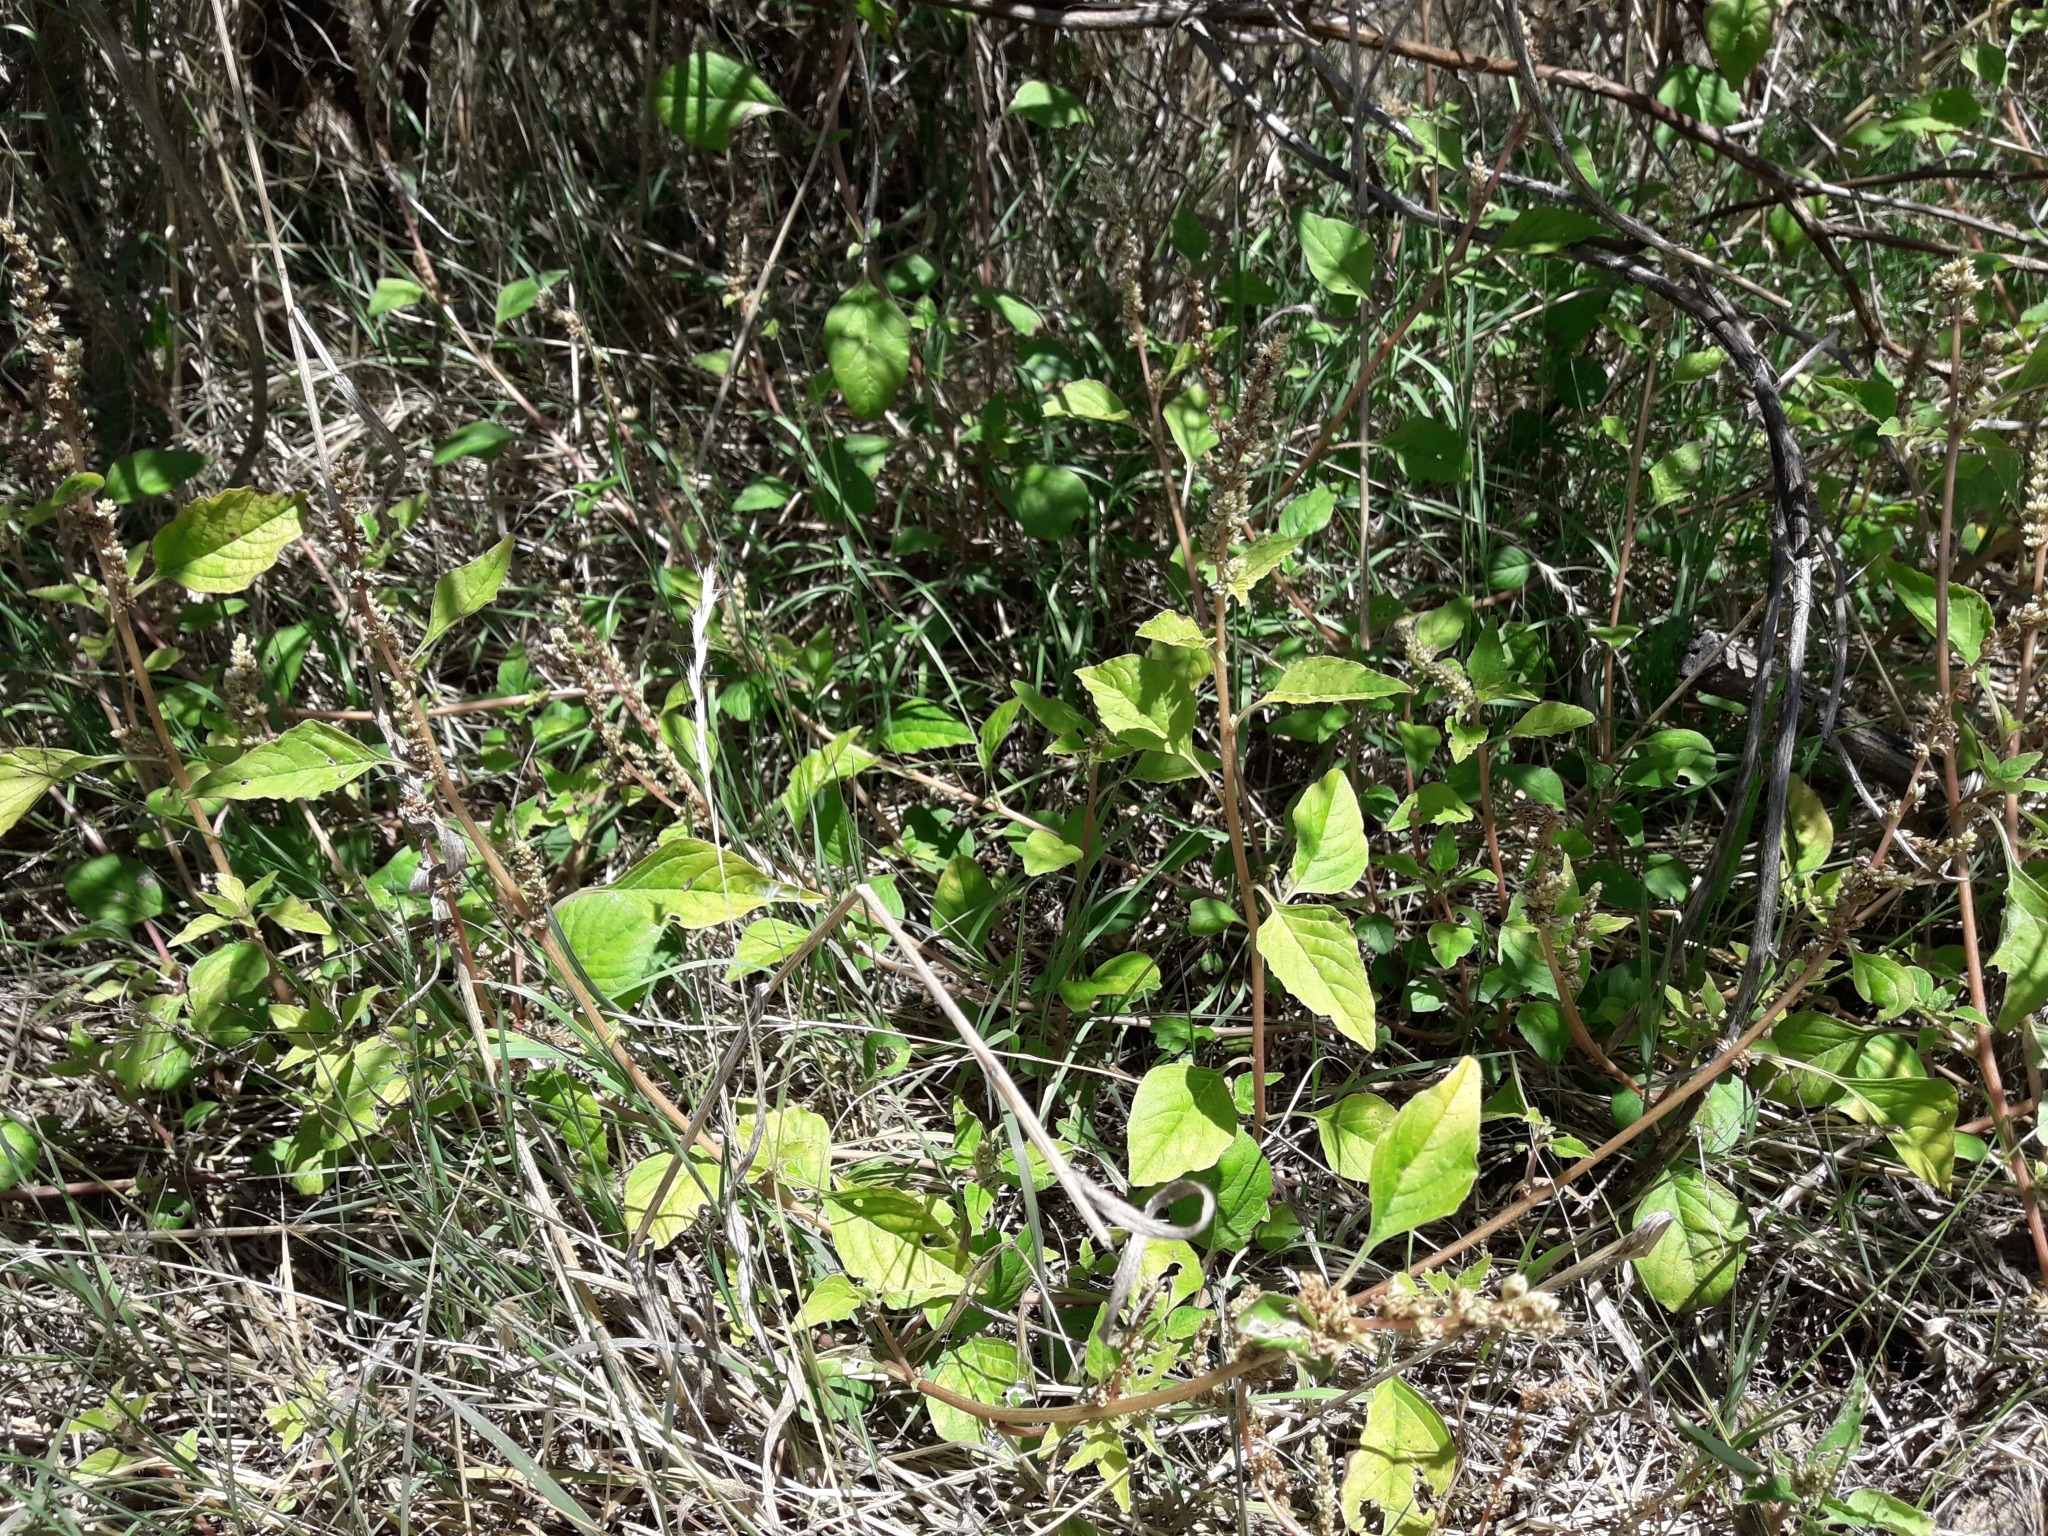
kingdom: Plantae
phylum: Tracheophyta
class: Magnoliopsida
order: Caryophyllales
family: Amaranthaceae
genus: Amaranthus
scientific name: Amaranthus deflexus
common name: Perennial pigweed
